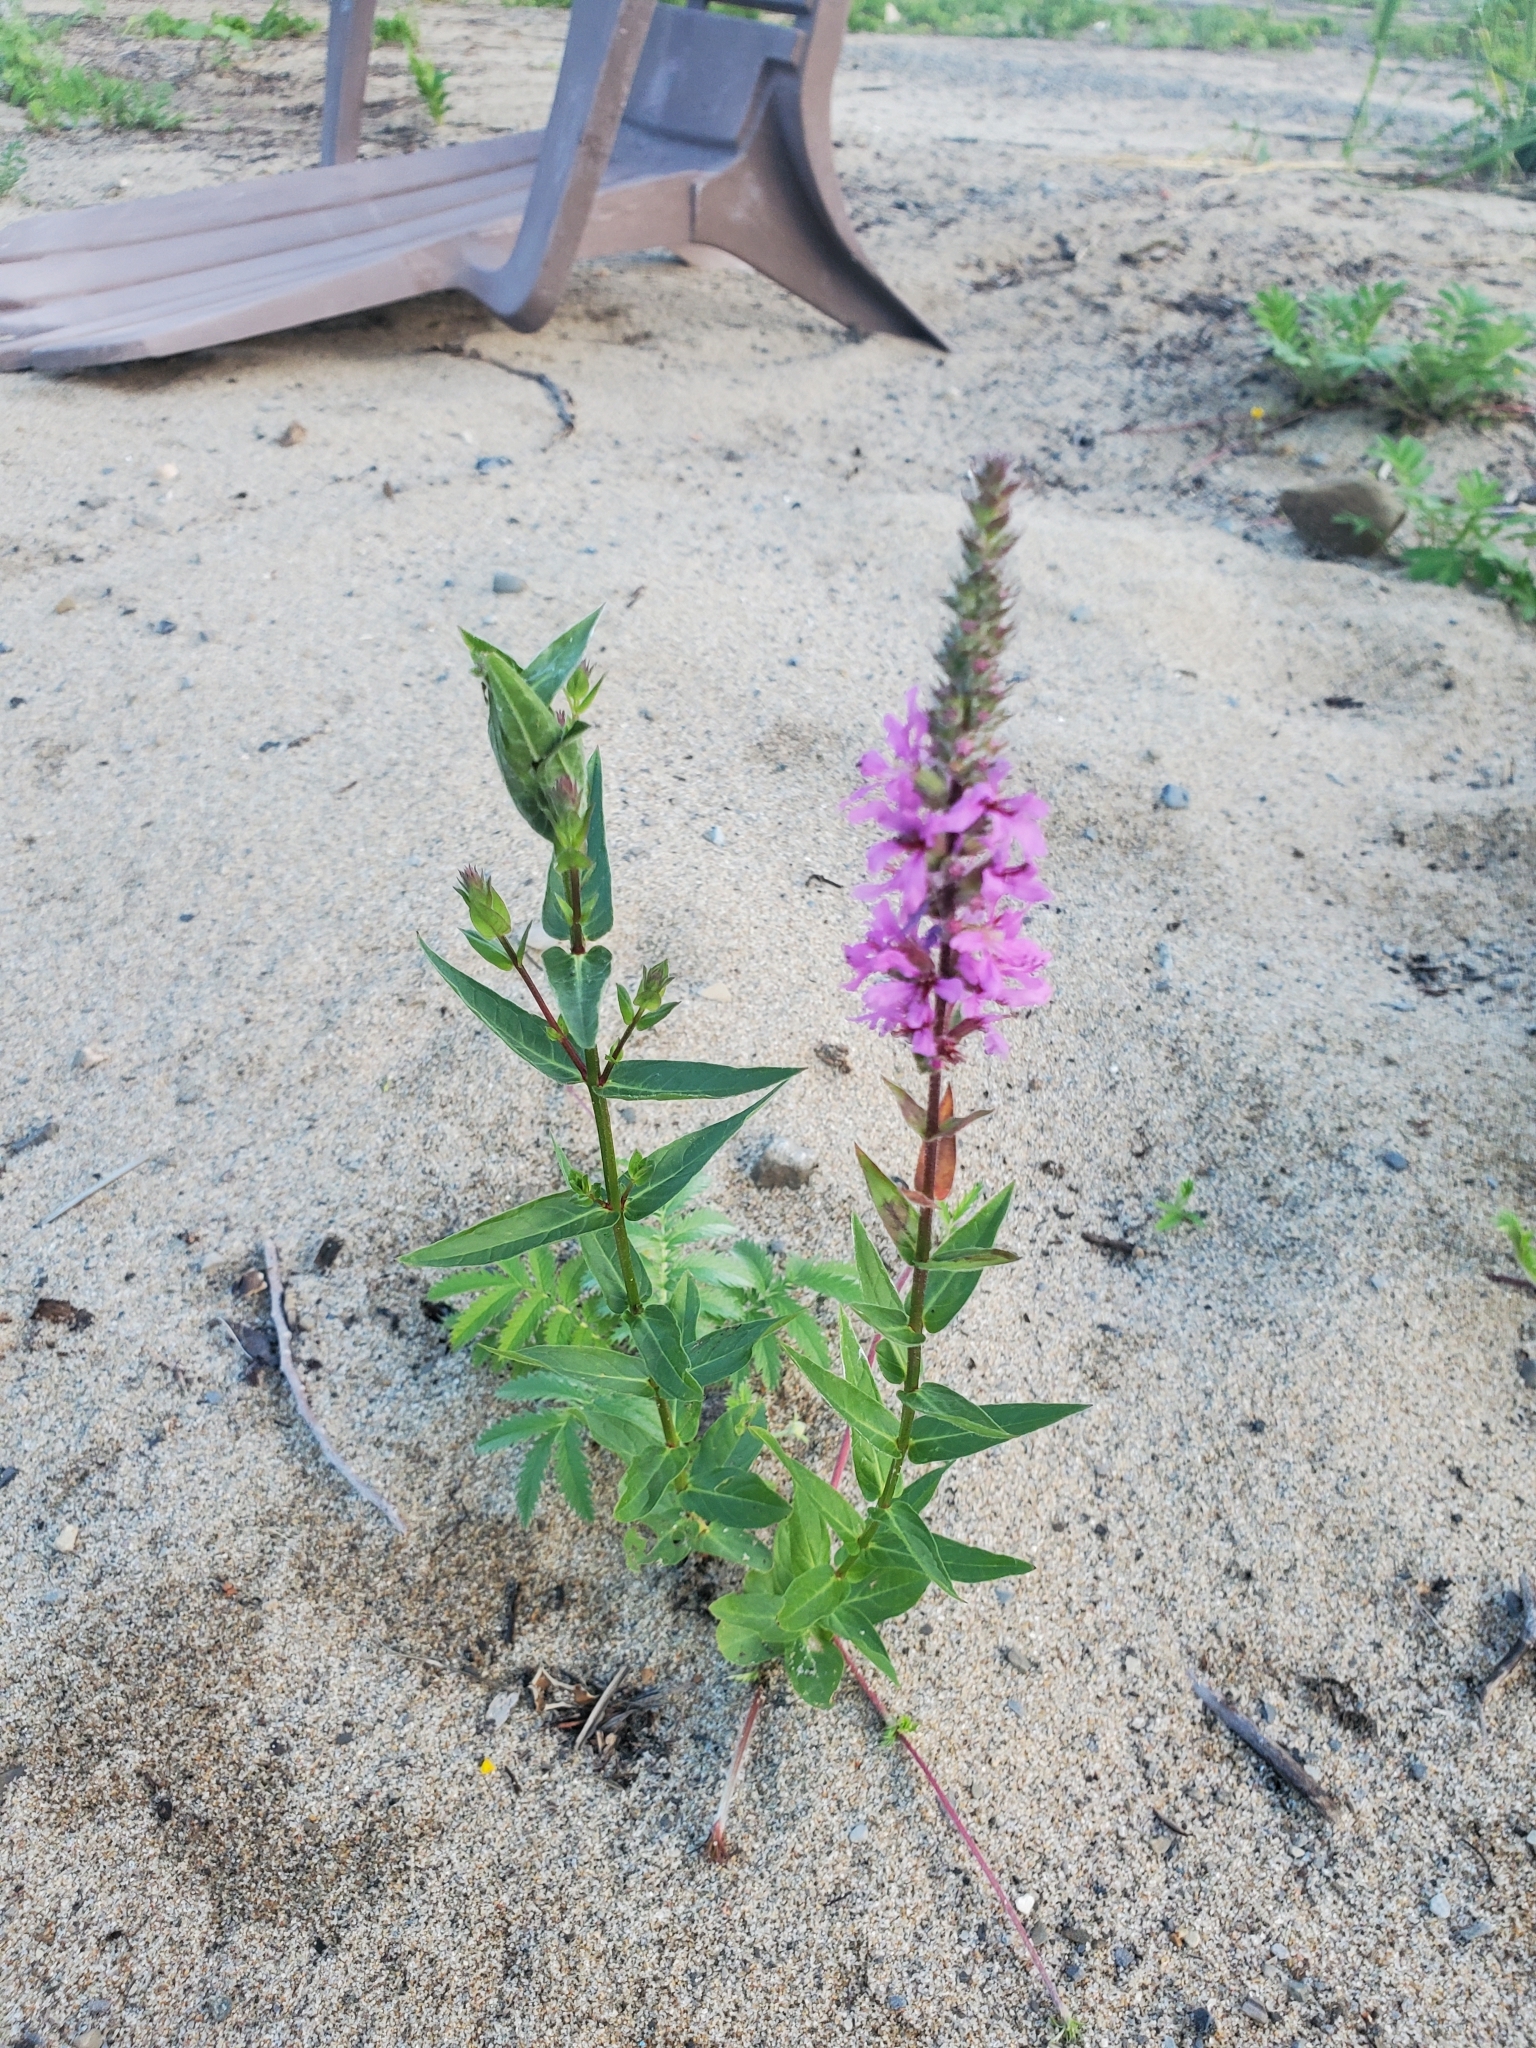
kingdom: Plantae
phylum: Tracheophyta
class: Magnoliopsida
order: Myrtales
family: Lythraceae
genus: Lythrum
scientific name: Lythrum salicaria
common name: Purple loosestrife
